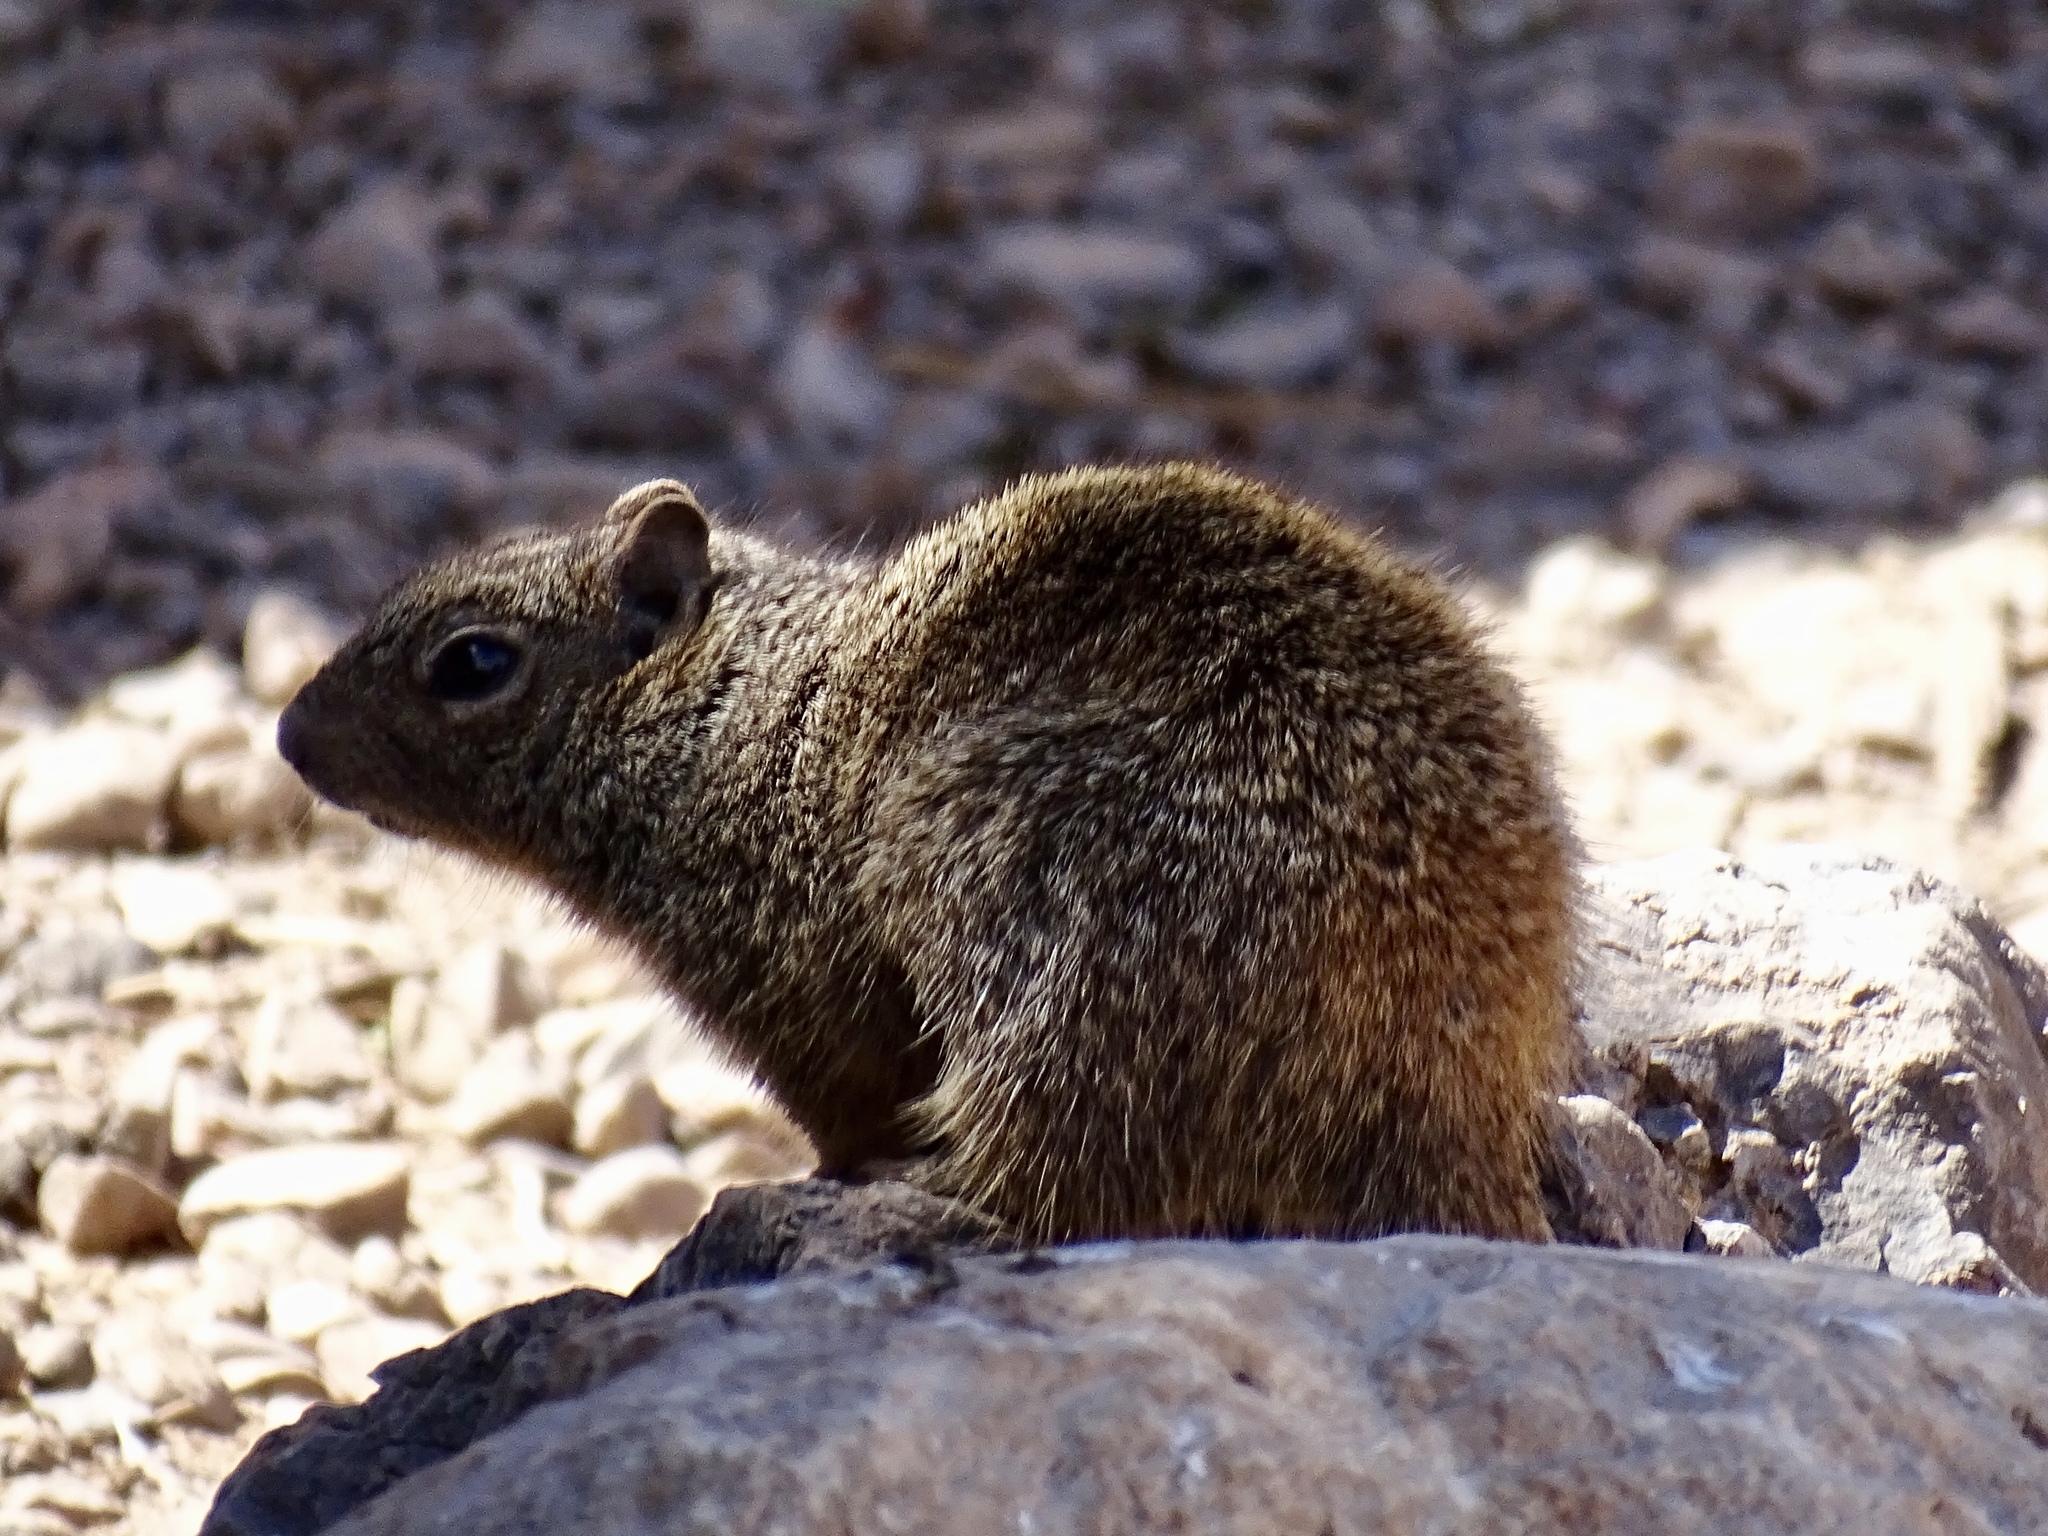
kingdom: Animalia
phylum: Chordata
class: Mammalia
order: Rodentia
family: Sciuridae
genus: Otospermophilus
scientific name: Otospermophilus variegatus
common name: Rock squirrel
